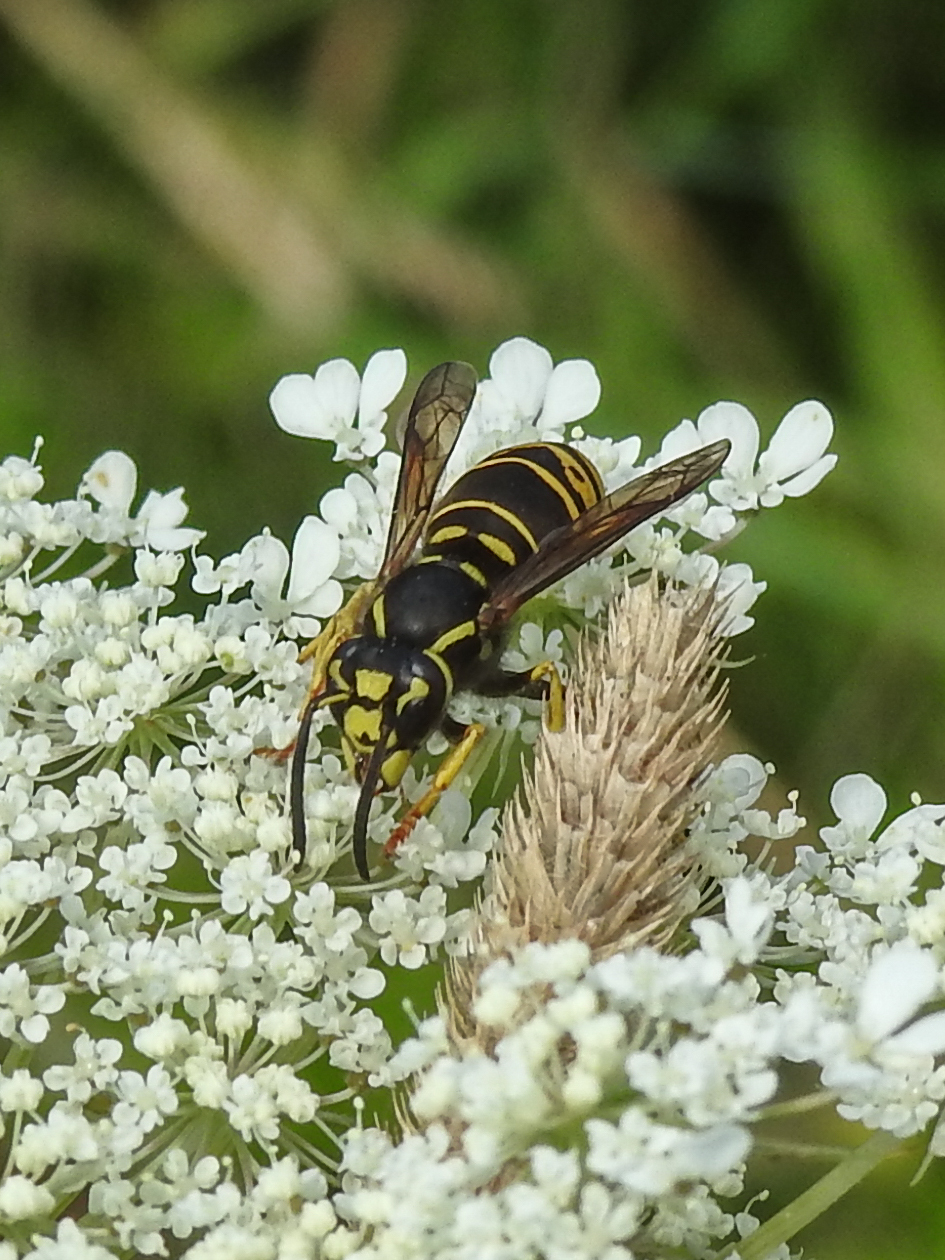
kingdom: Animalia
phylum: Arthropoda
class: Insecta
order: Hymenoptera
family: Vespidae
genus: Vespula
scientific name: Vespula vidua
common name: Widow yellowjacket
